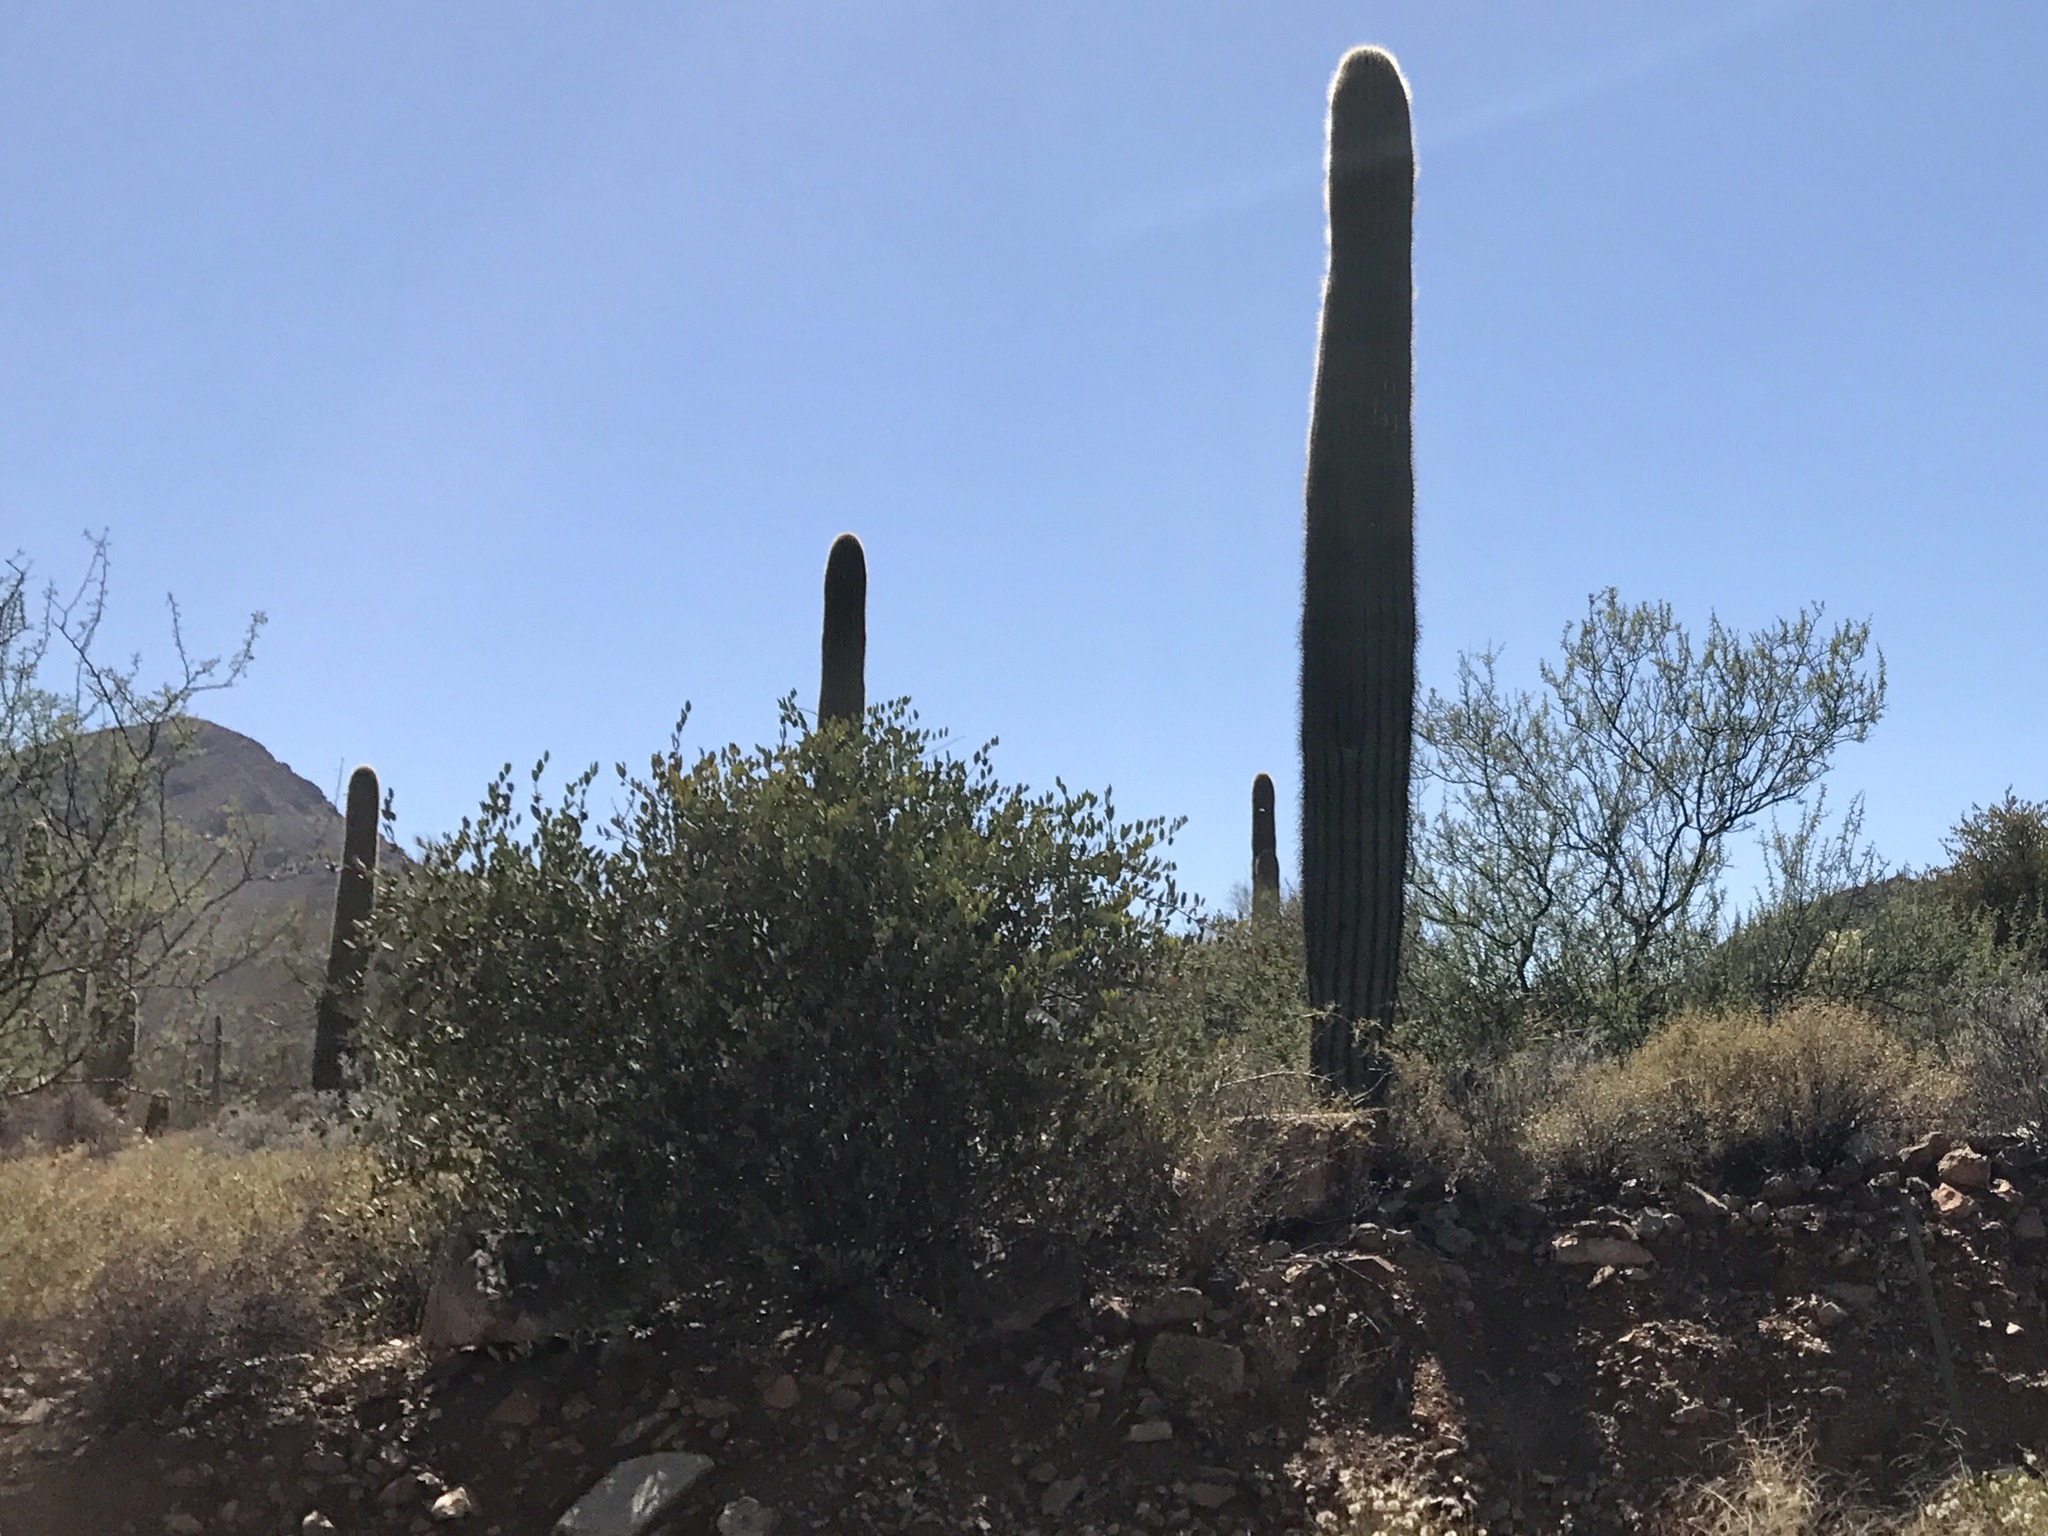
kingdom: Plantae
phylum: Tracheophyta
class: Magnoliopsida
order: Caryophyllales
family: Cactaceae
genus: Carnegiea
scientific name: Carnegiea gigantea
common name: Saguaro
